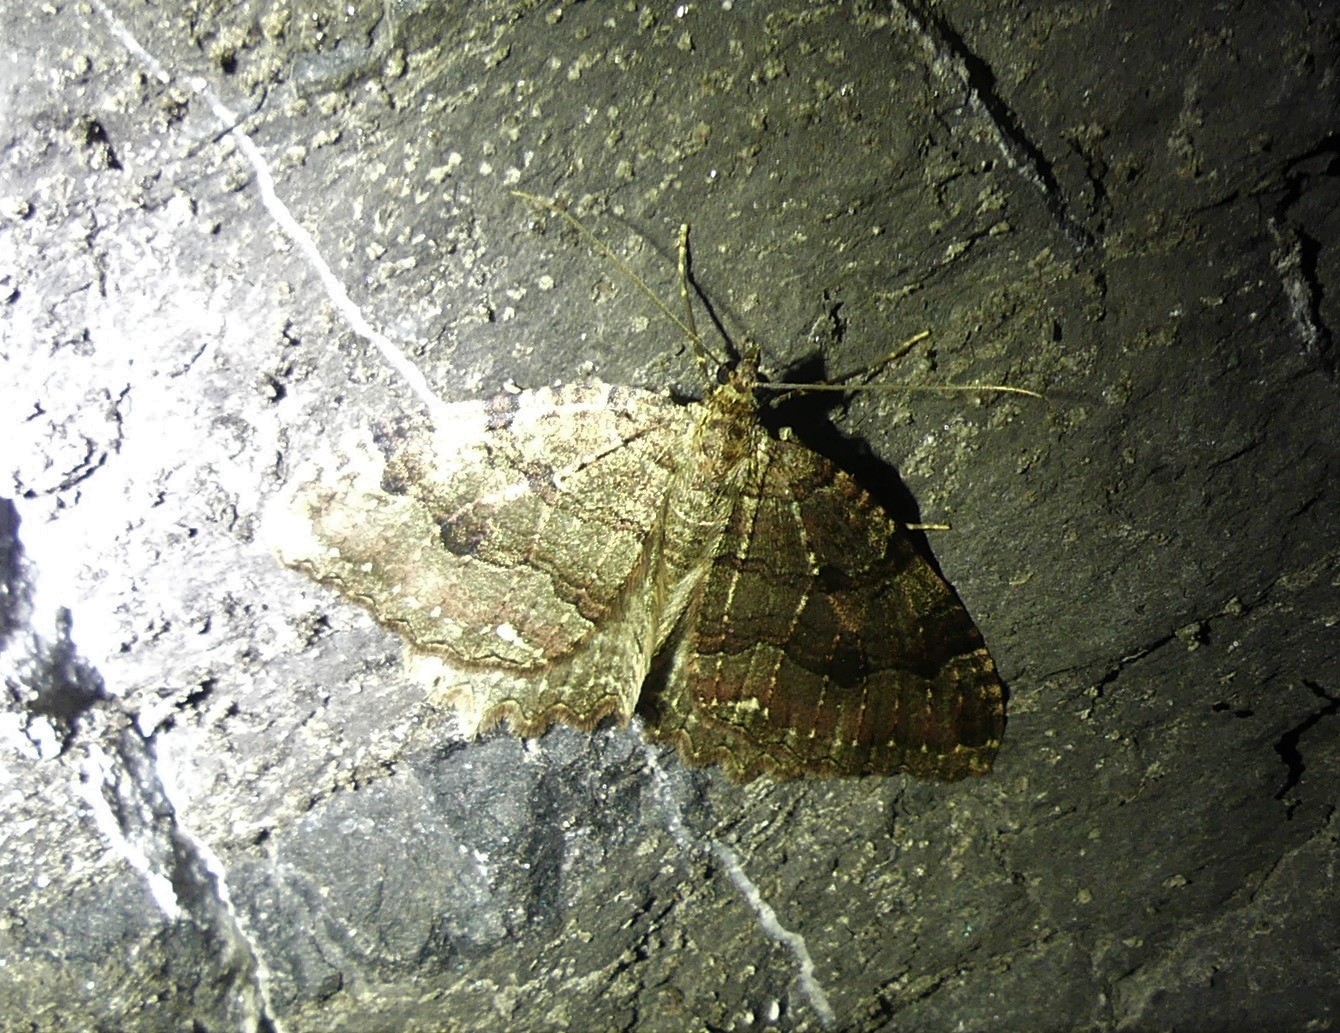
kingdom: Animalia
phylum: Arthropoda
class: Insecta
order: Lepidoptera
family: Geometridae
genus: Triphosa
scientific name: Triphosa dubitata
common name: Tissue
